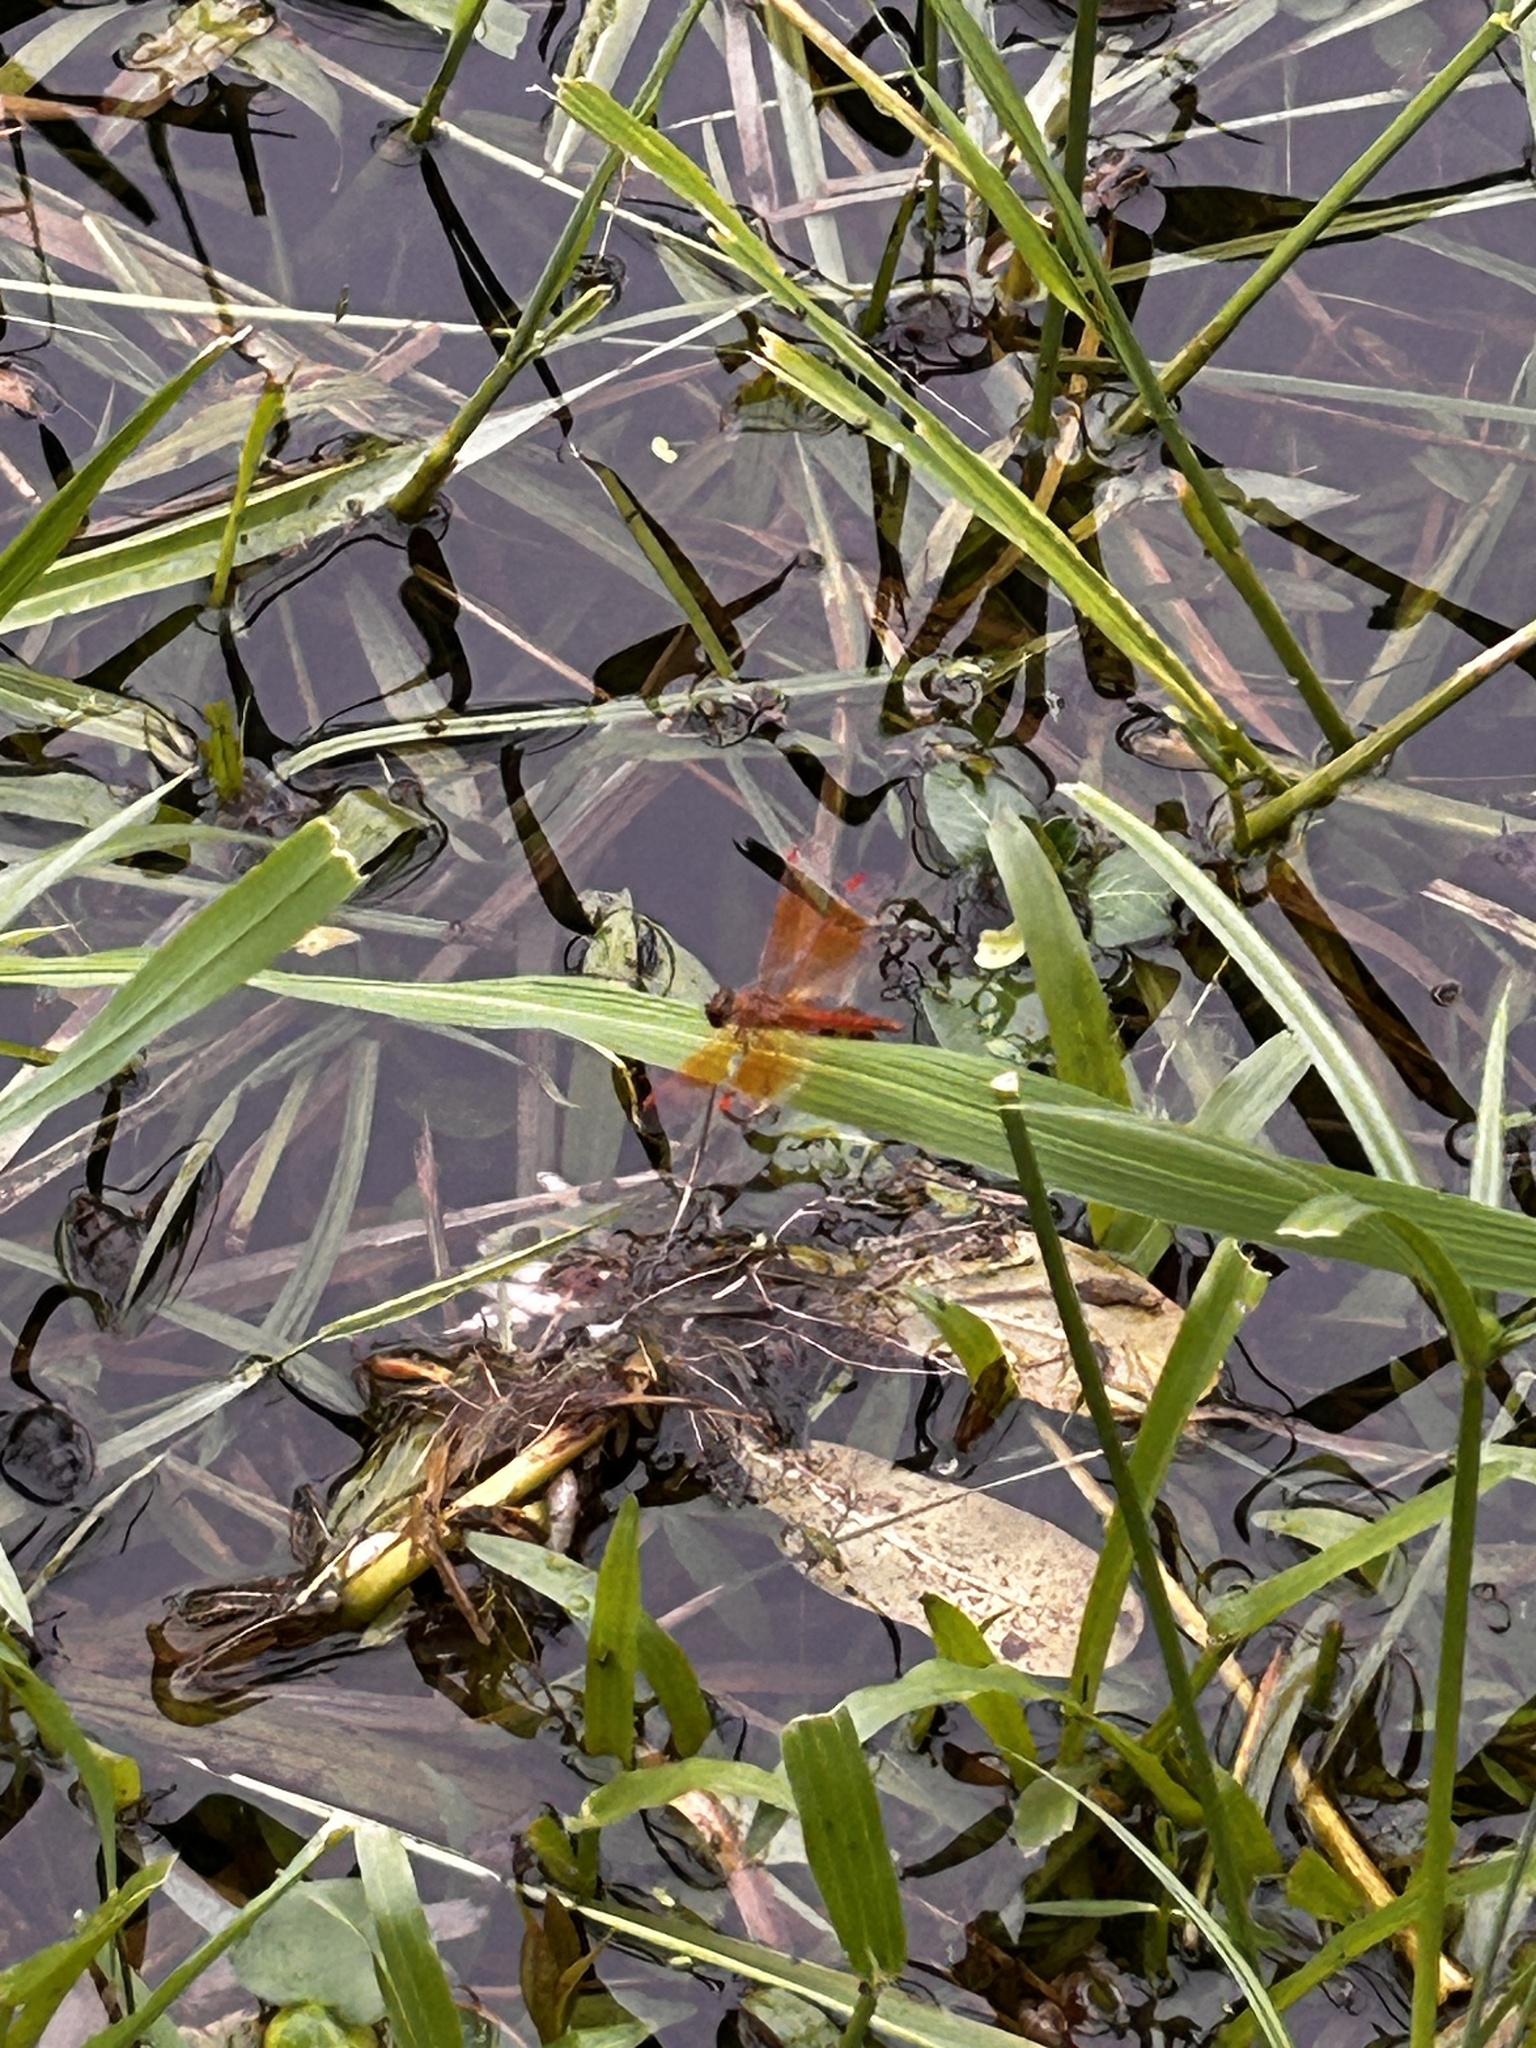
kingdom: Animalia
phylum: Arthropoda
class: Insecta
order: Odonata
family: Libellulidae
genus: Brachythemis
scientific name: Brachythemis contaminata
